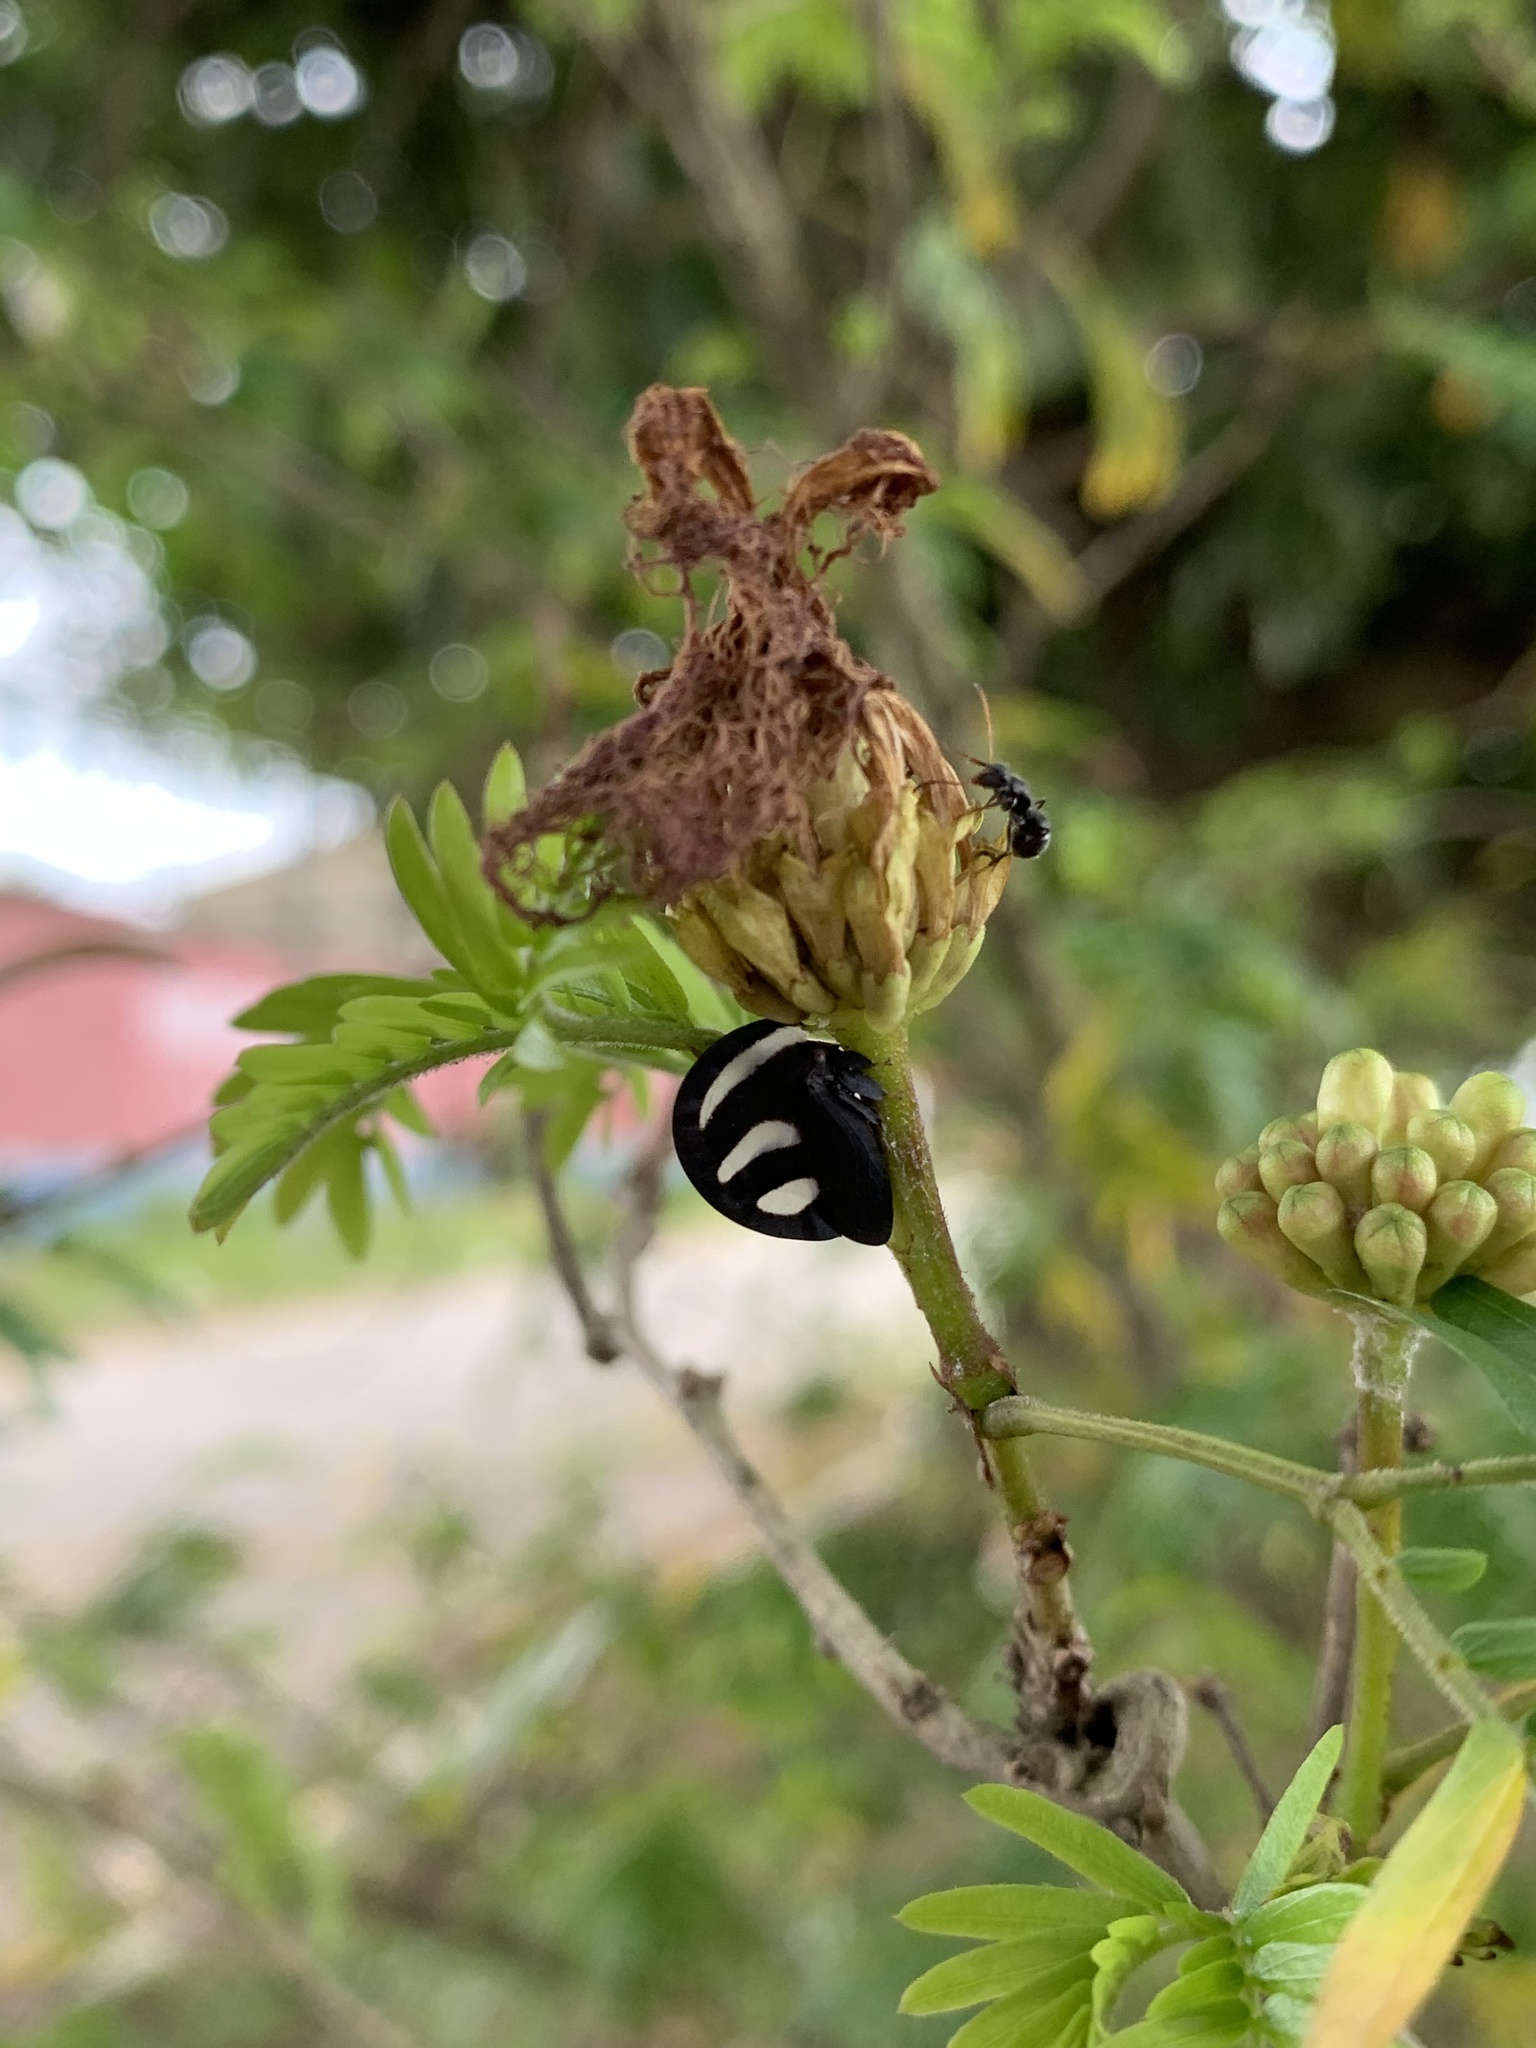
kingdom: Animalia
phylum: Arthropoda
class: Insecta
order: Hemiptera
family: Membracidae
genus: Membracis
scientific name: Membracis
